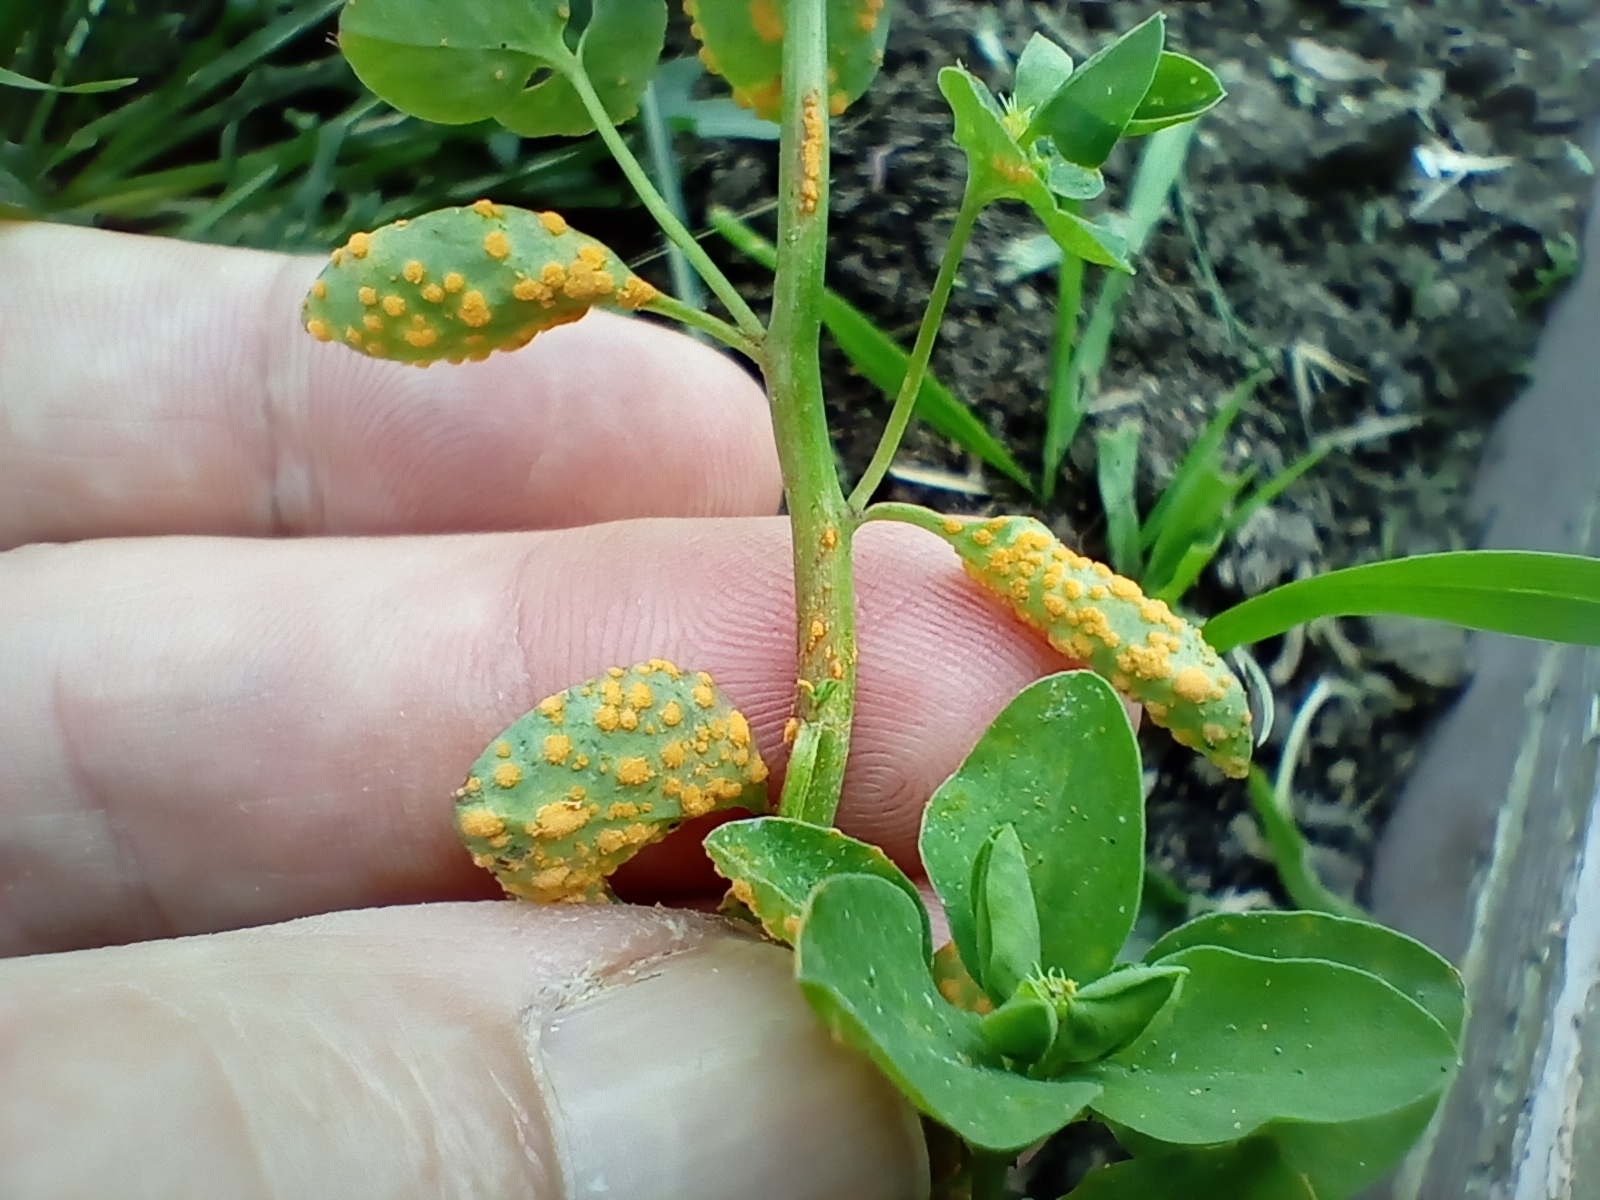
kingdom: Fungi
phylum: Basidiomycota
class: Pucciniomycetes
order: Pucciniales
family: Melampsoraceae
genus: Melampsora
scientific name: Melampsora euphorbiae
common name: Spurge rust
